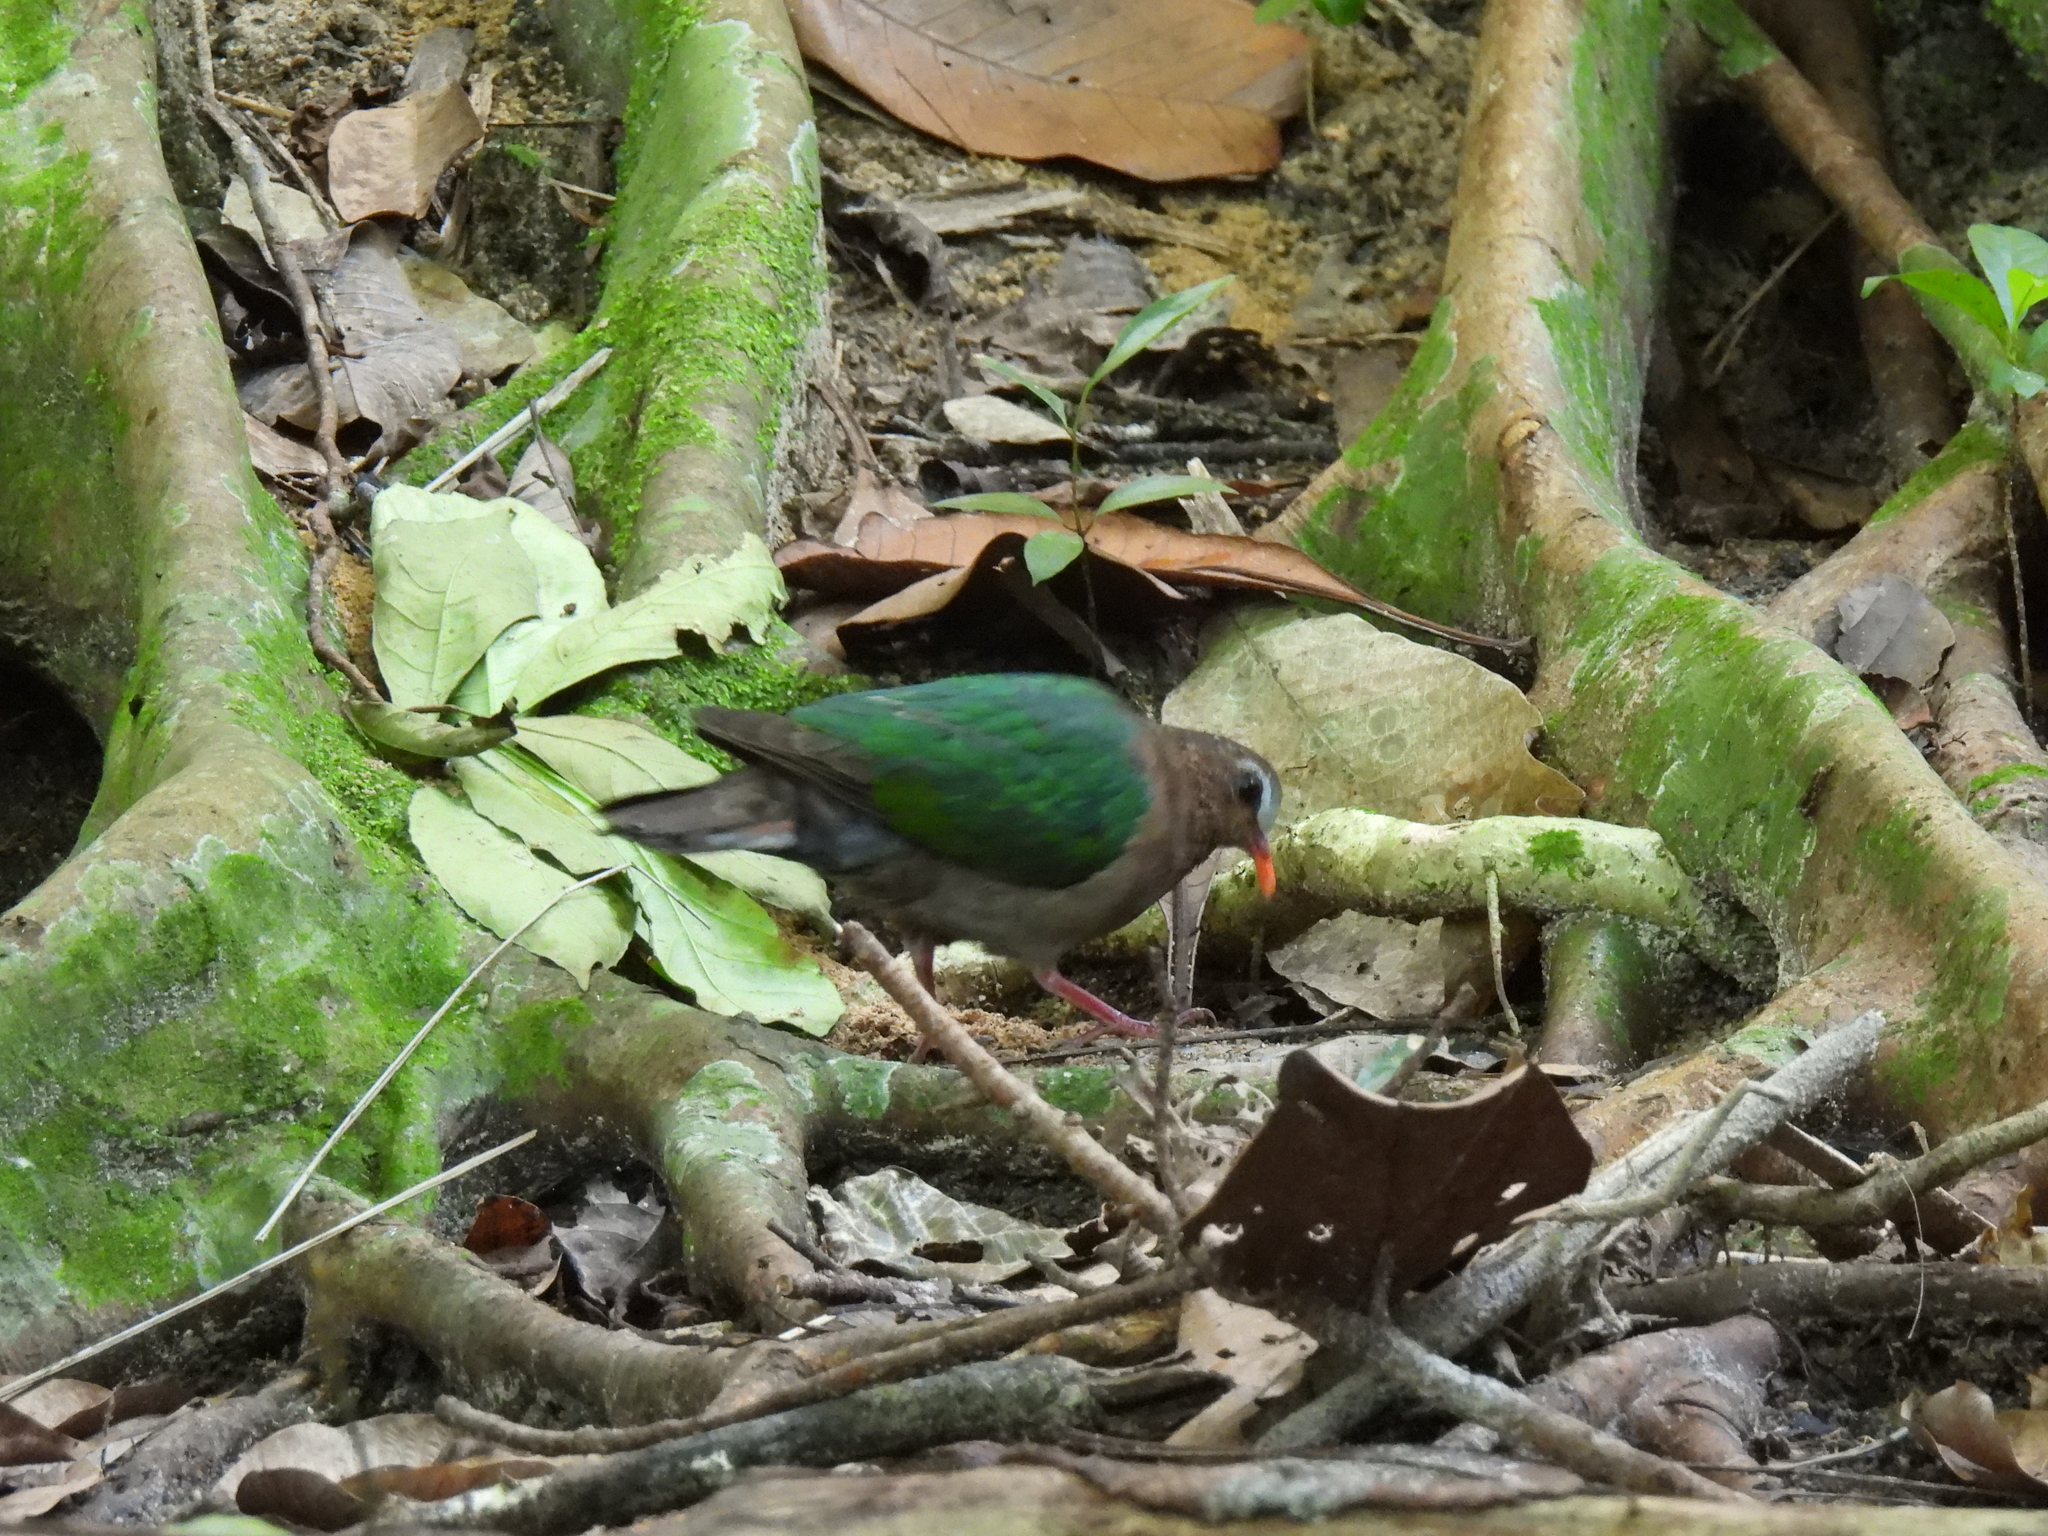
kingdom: Animalia
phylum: Chordata
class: Aves
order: Columbiformes
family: Columbidae
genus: Chalcophaps
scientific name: Chalcophaps indica
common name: Common emerald dove
